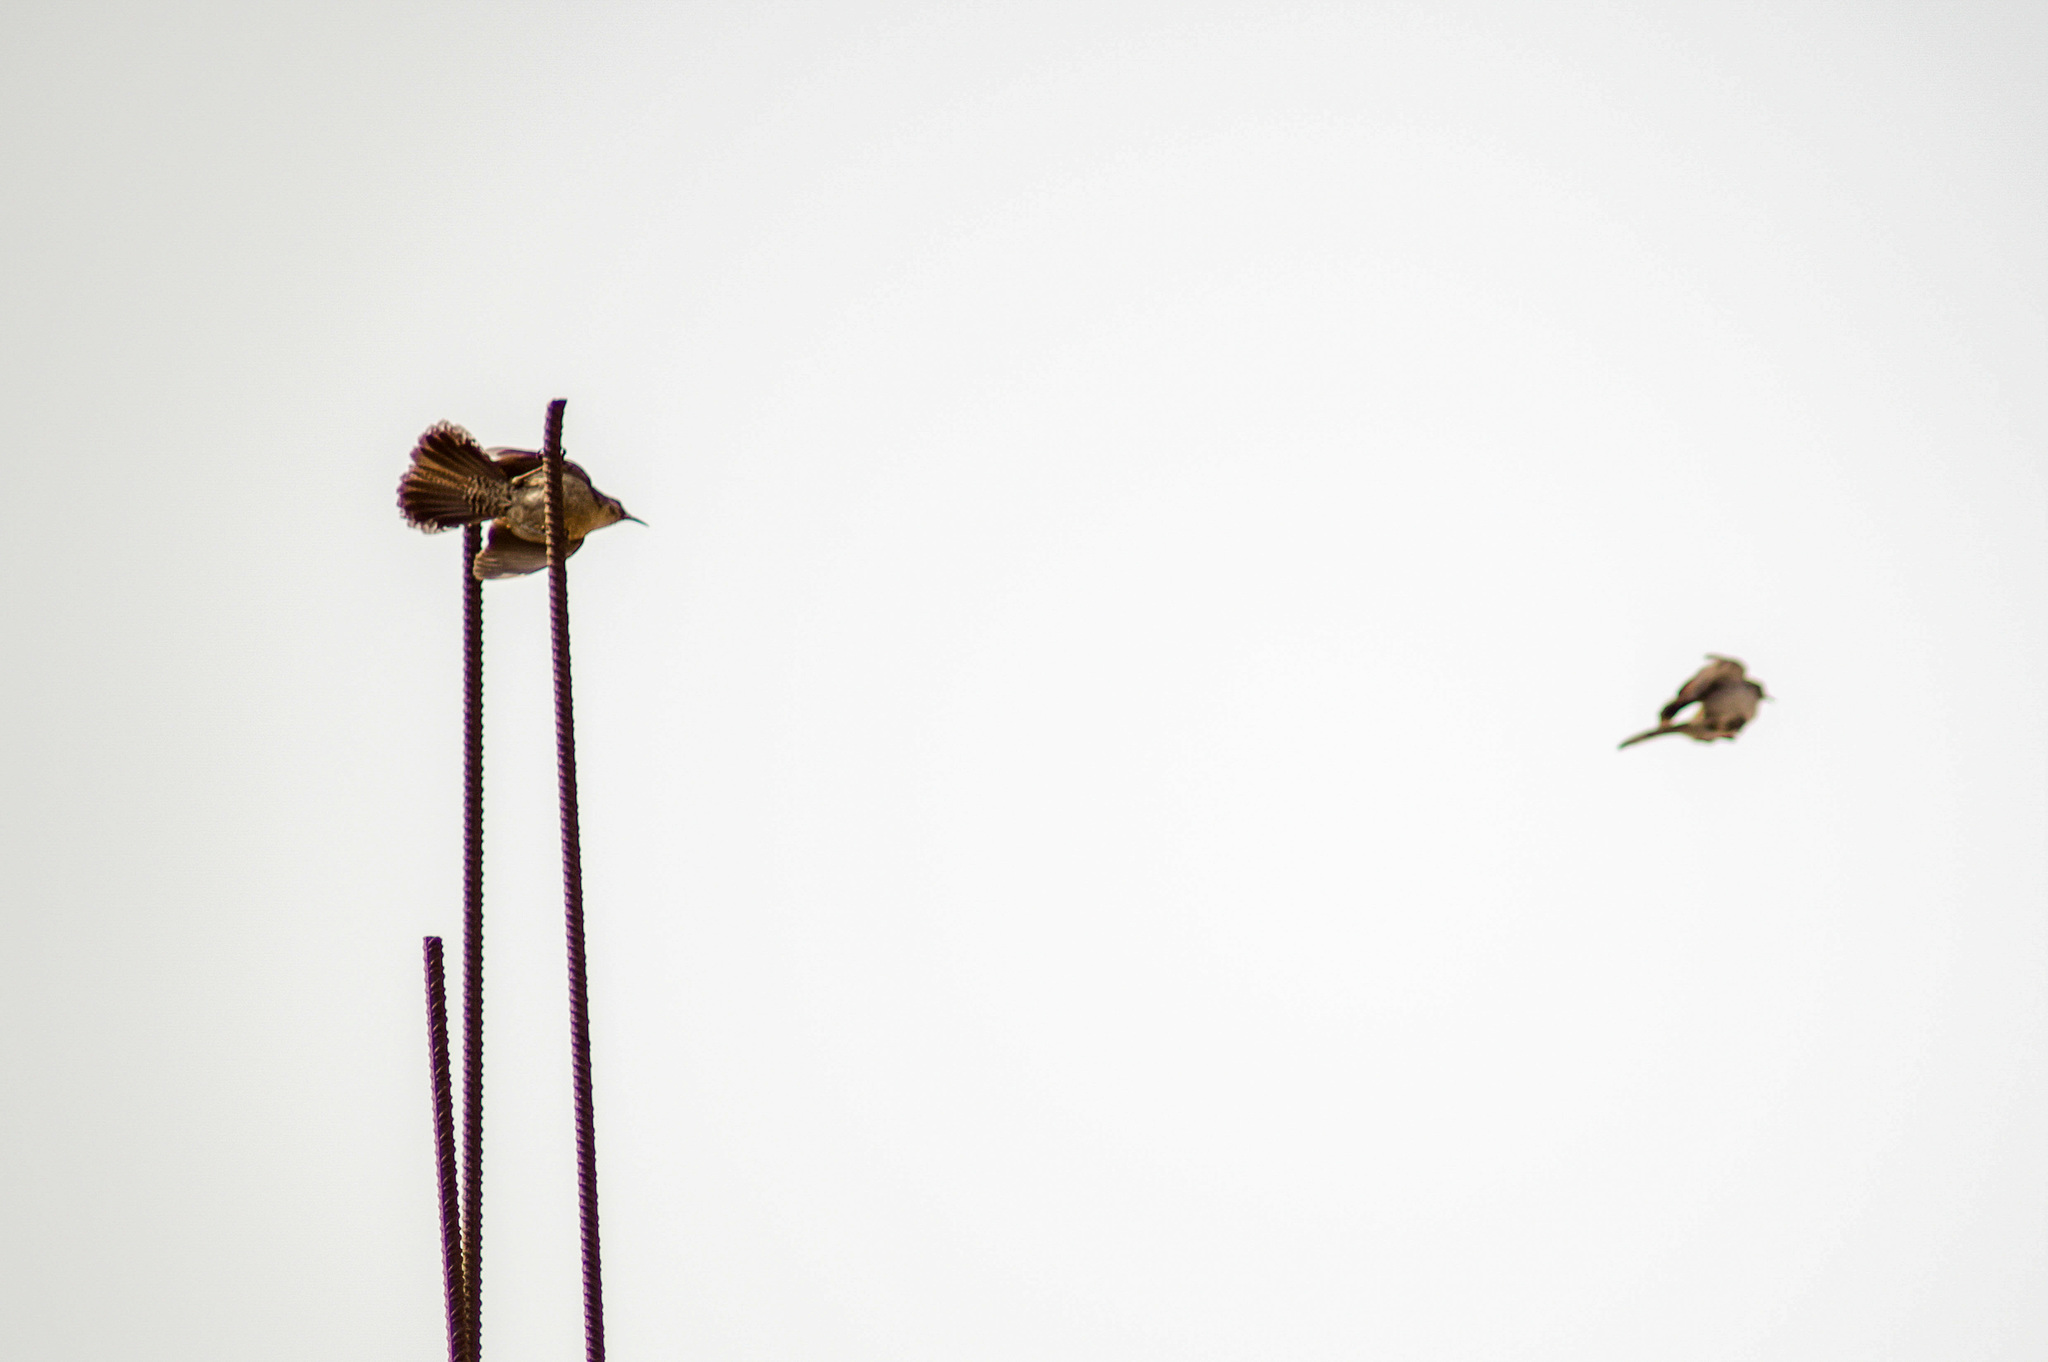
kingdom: Animalia
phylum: Chordata
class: Aves
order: Passeriformes
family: Troglodytidae
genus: Thryomanes
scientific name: Thryomanes bewickii
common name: Bewick's wren
